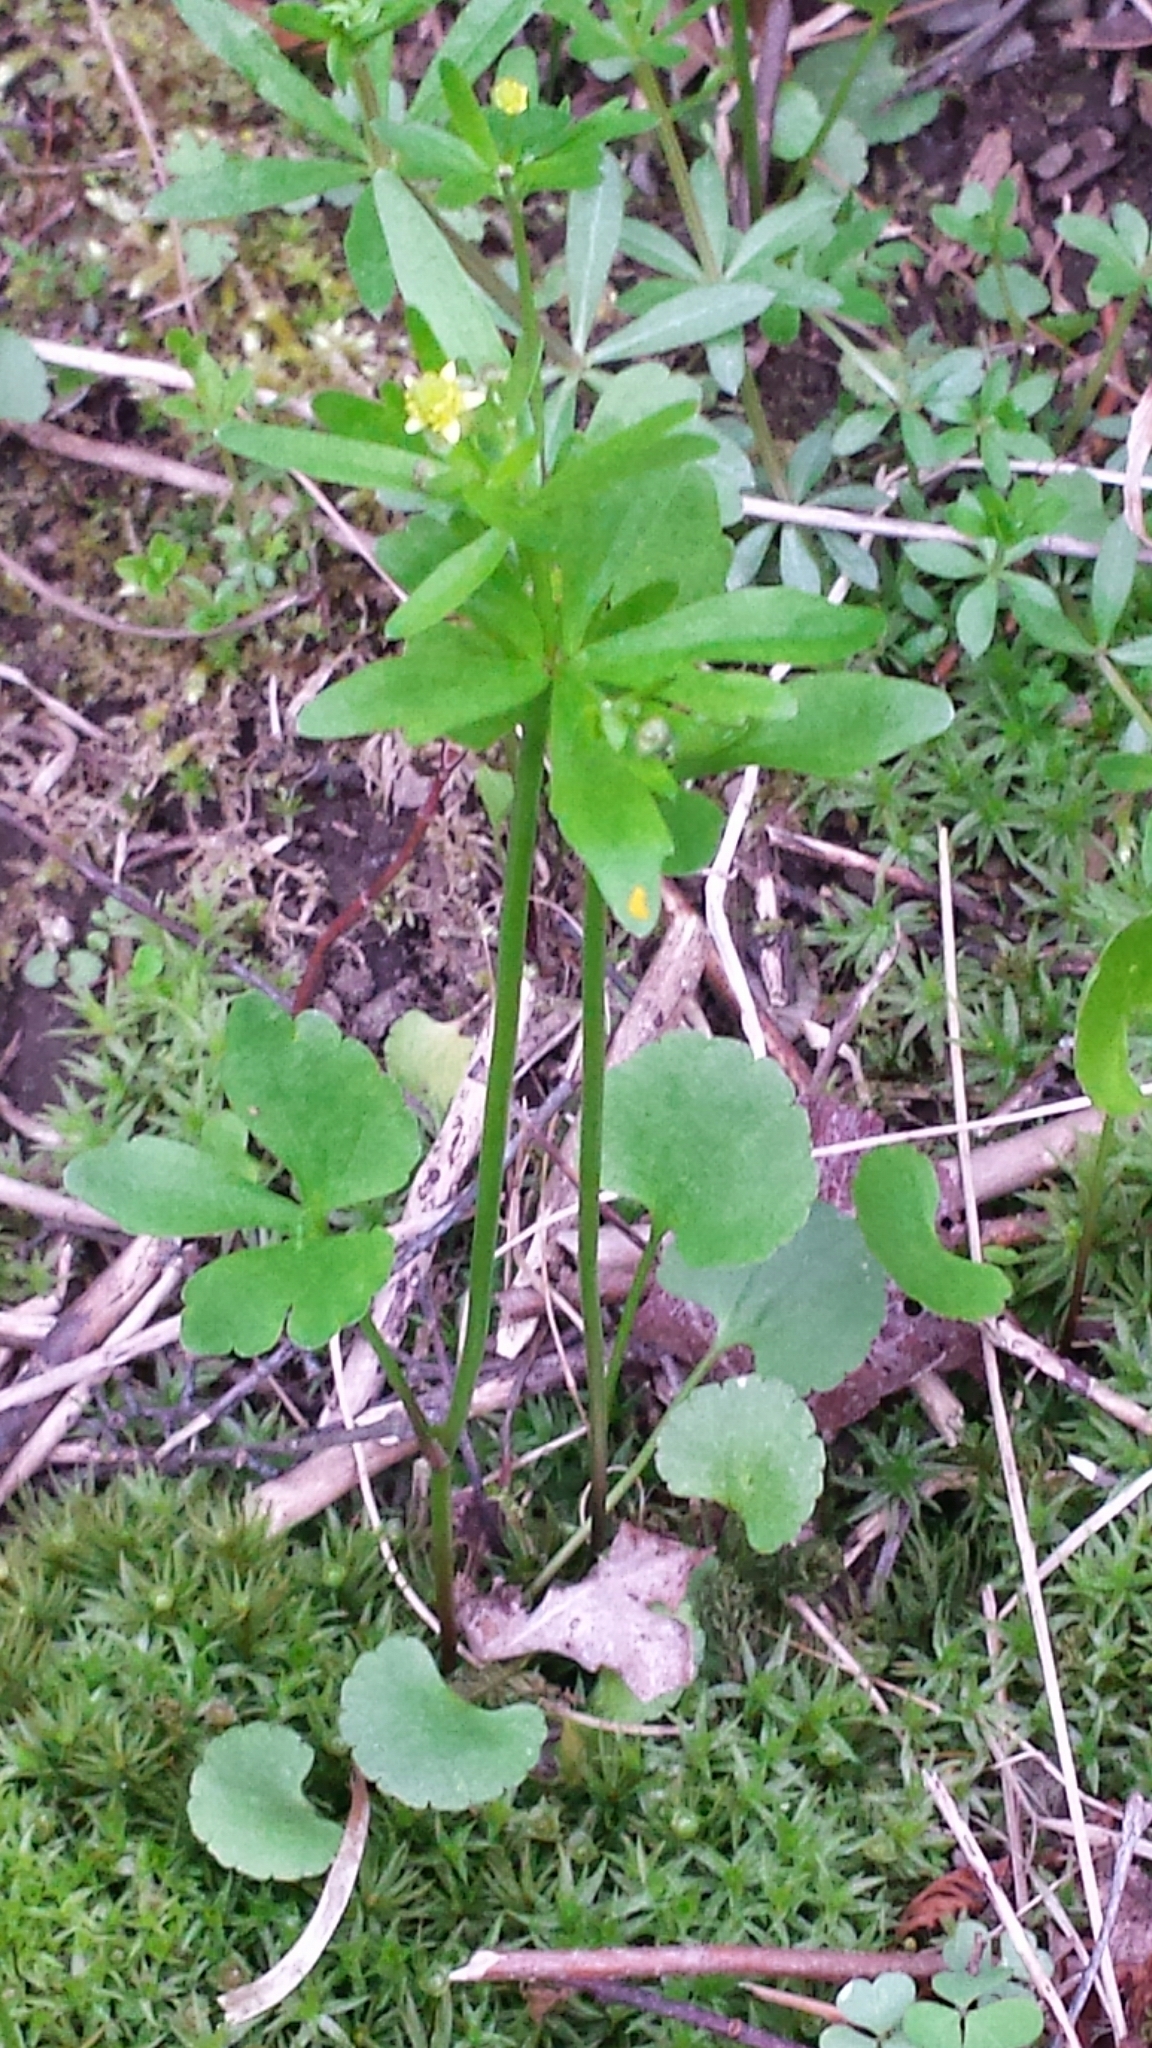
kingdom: Plantae
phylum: Tracheophyta
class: Magnoliopsida
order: Ranunculales
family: Ranunculaceae
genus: Ranunculus
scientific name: Ranunculus abortivus
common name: Early wood buttercup
